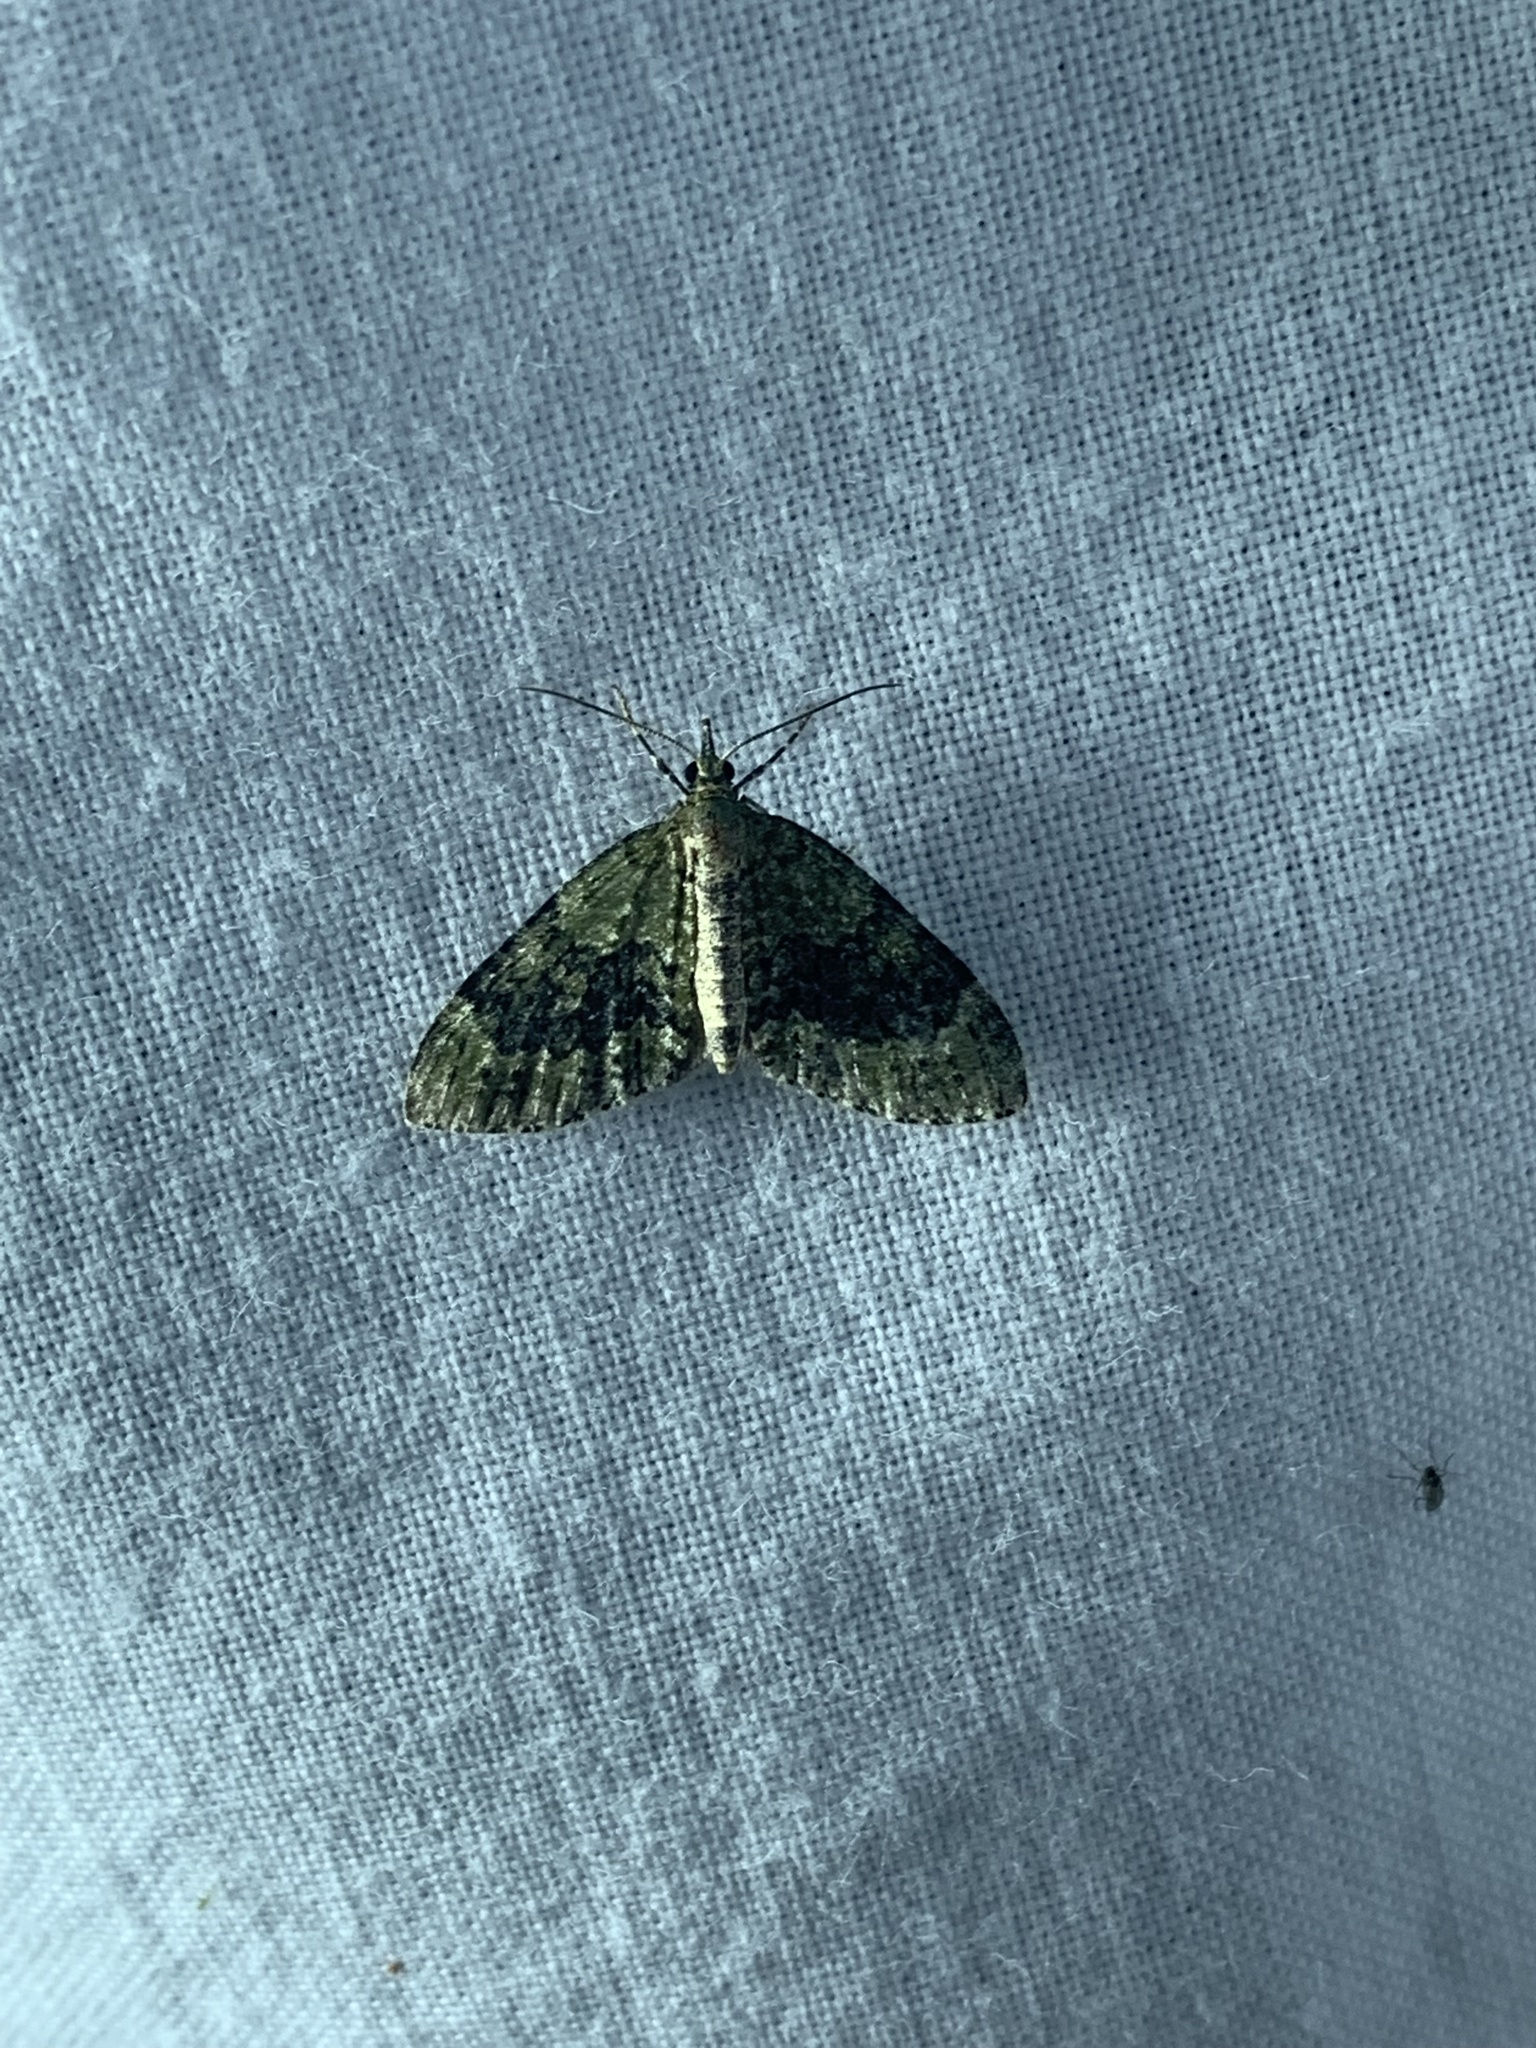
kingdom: Animalia
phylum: Arthropoda
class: Insecta
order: Lepidoptera
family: Geometridae
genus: Acasis
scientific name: Acasis viretata
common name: Yellow-barred brindle
